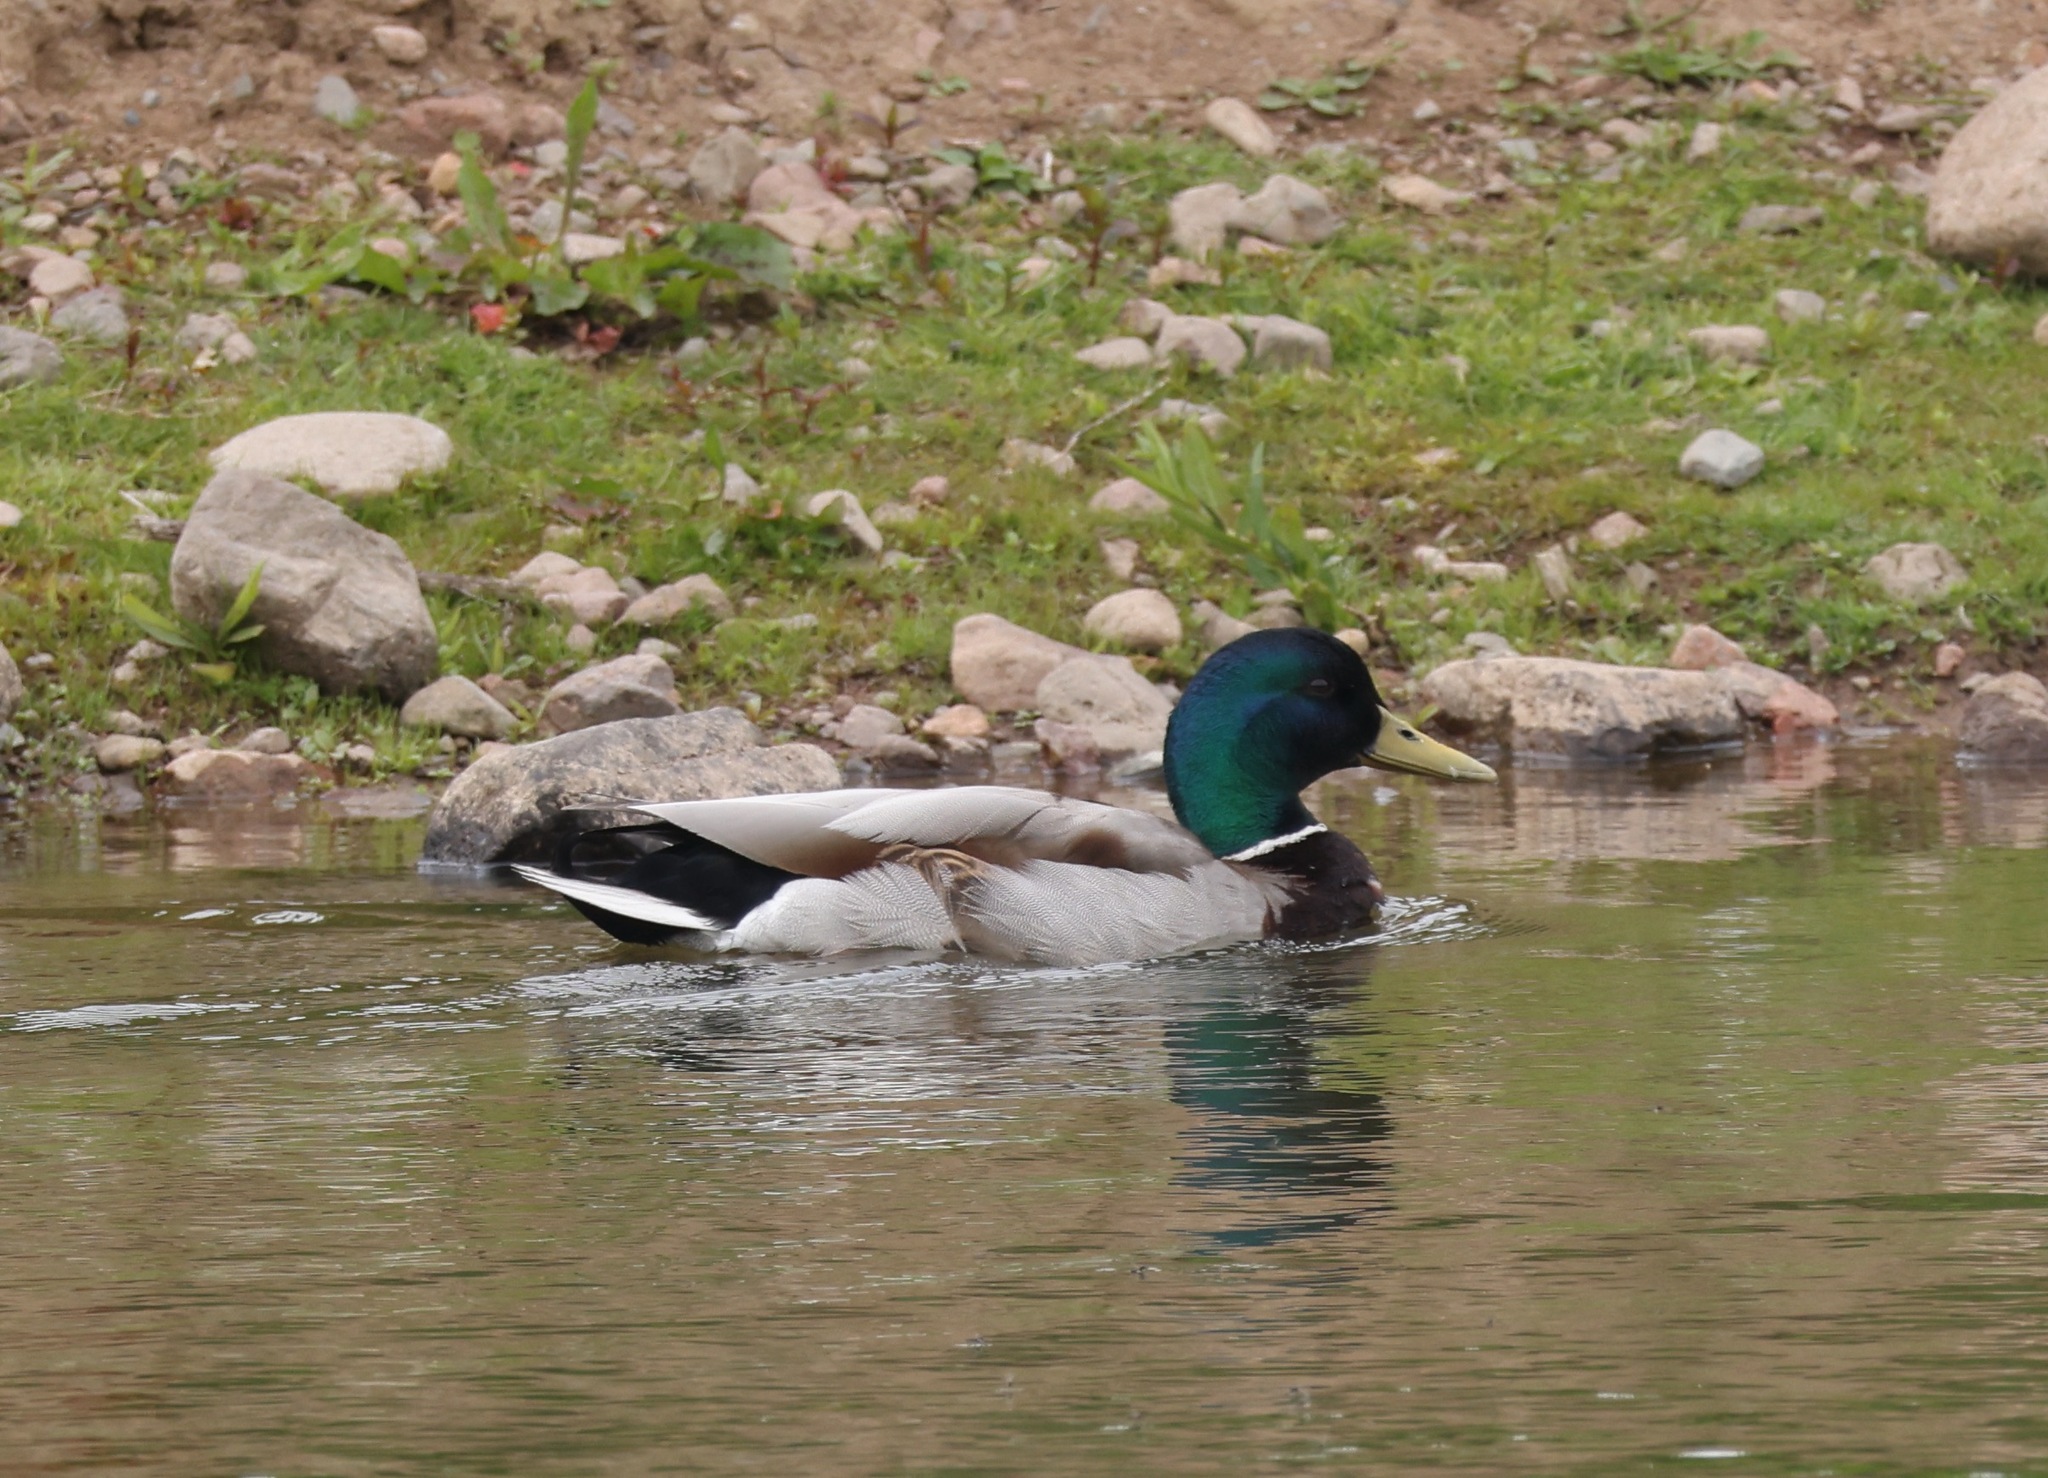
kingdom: Animalia
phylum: Chordata
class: Aves
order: Anseriformes
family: Anatidae
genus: Anas
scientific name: Anas platyrhynchos
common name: Mallard
